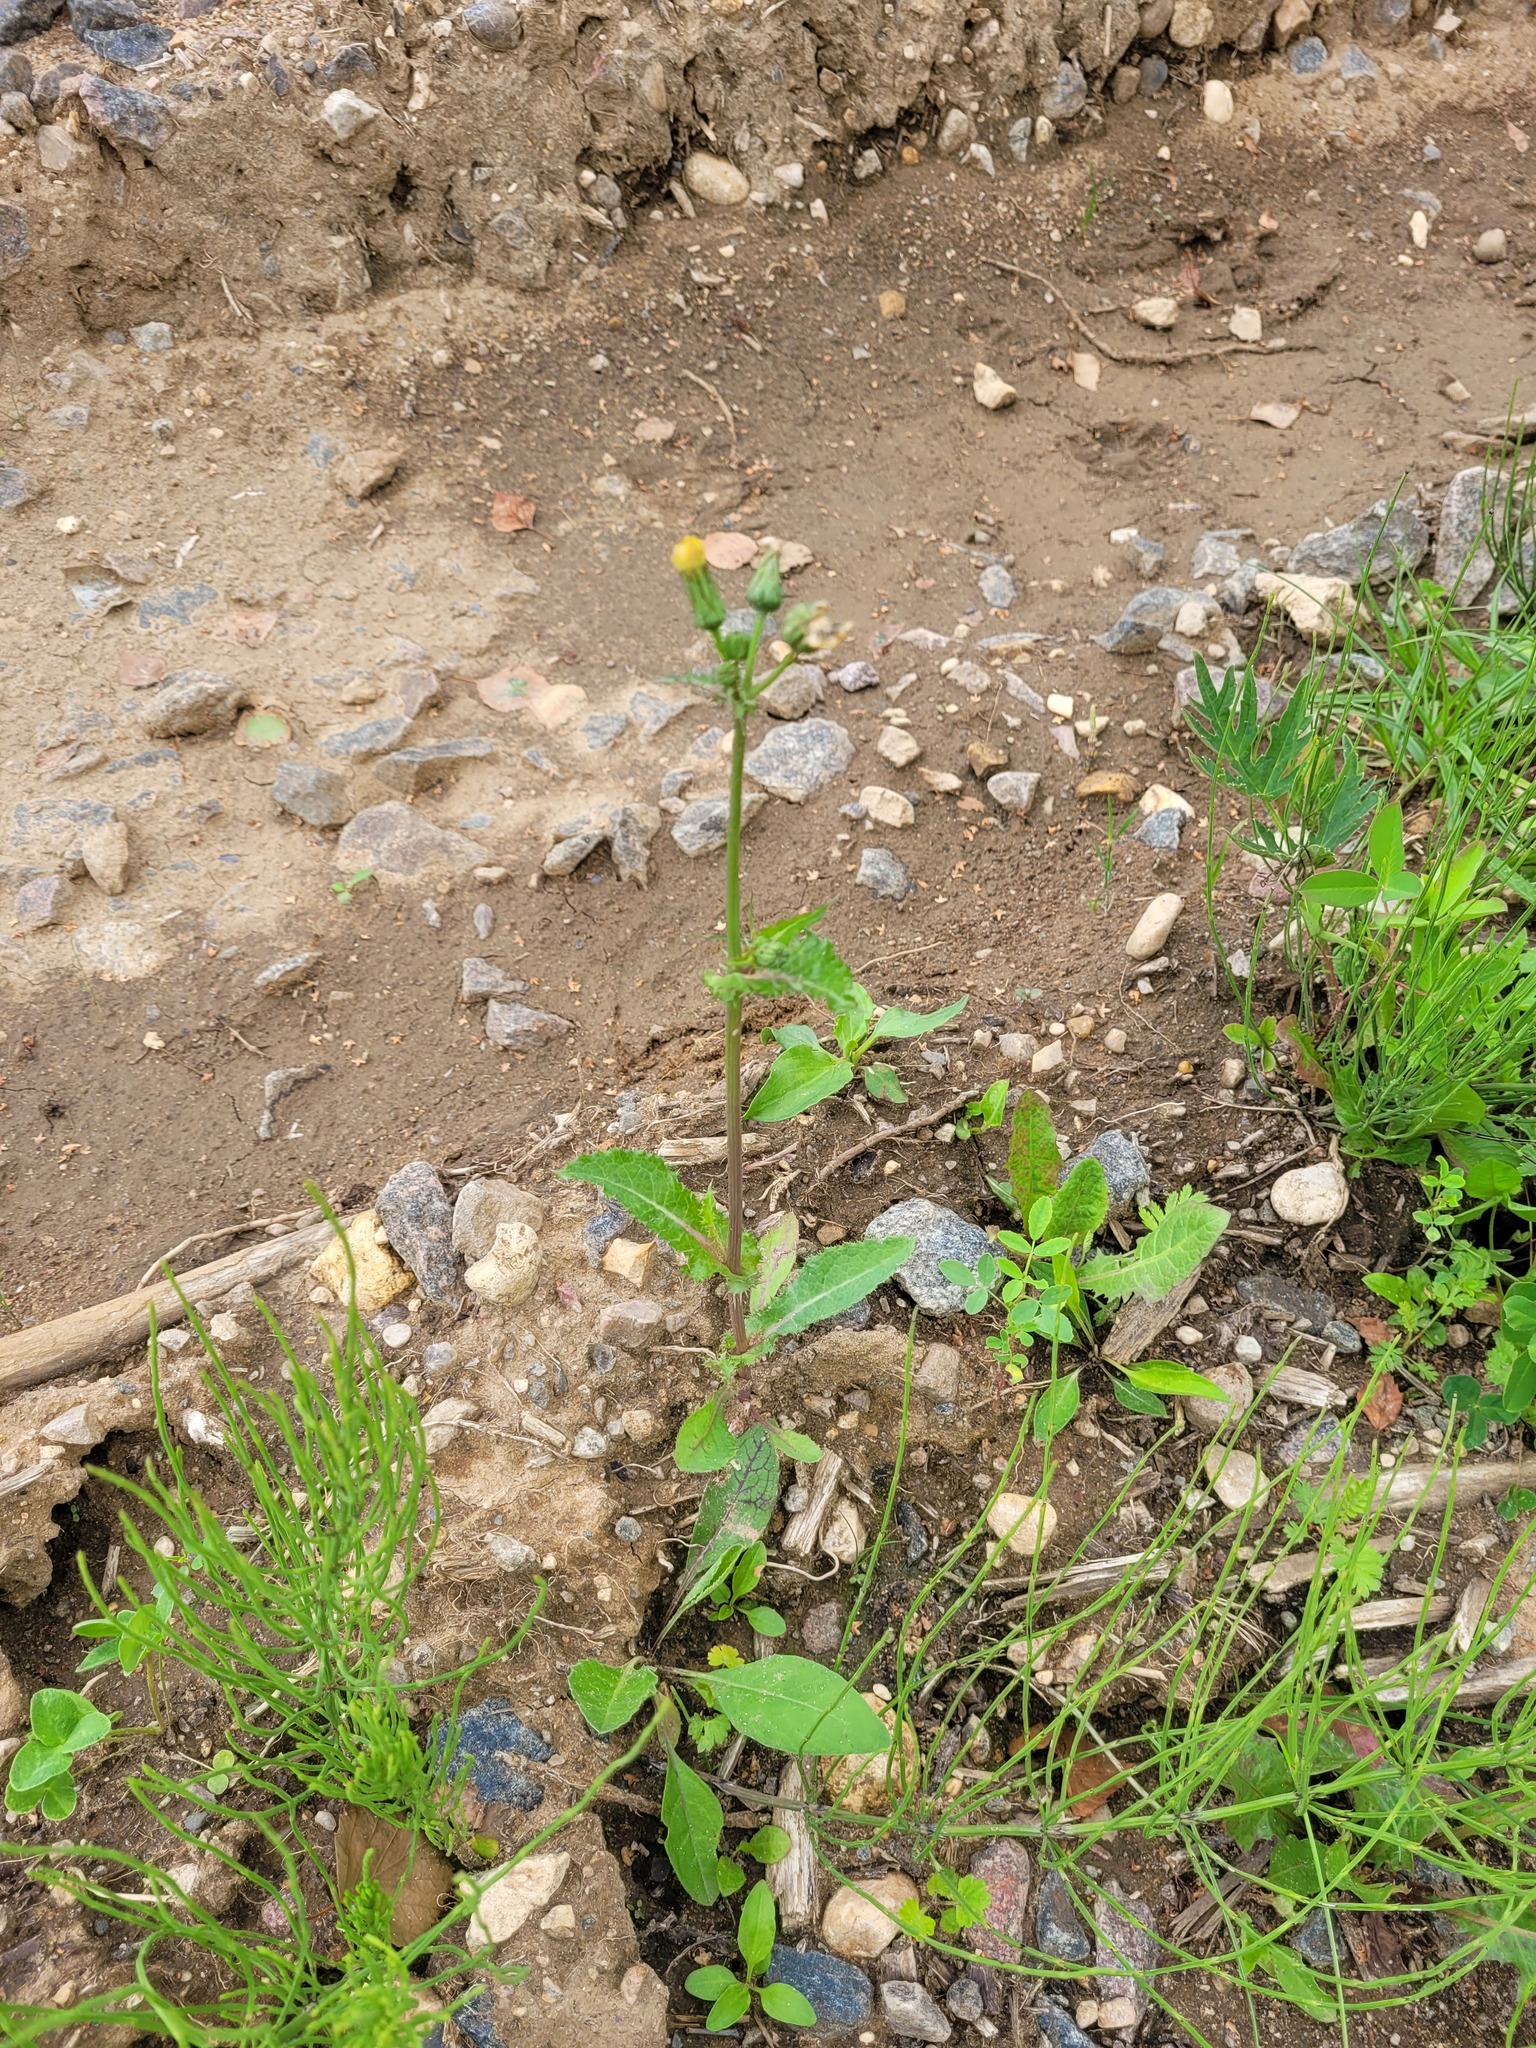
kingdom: Plantae
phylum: Tracheophyta
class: Magnoliopsida
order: Asterales
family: Asteraceae
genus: Sonchus
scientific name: Sonchus asper
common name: Prickly sow-thistle
